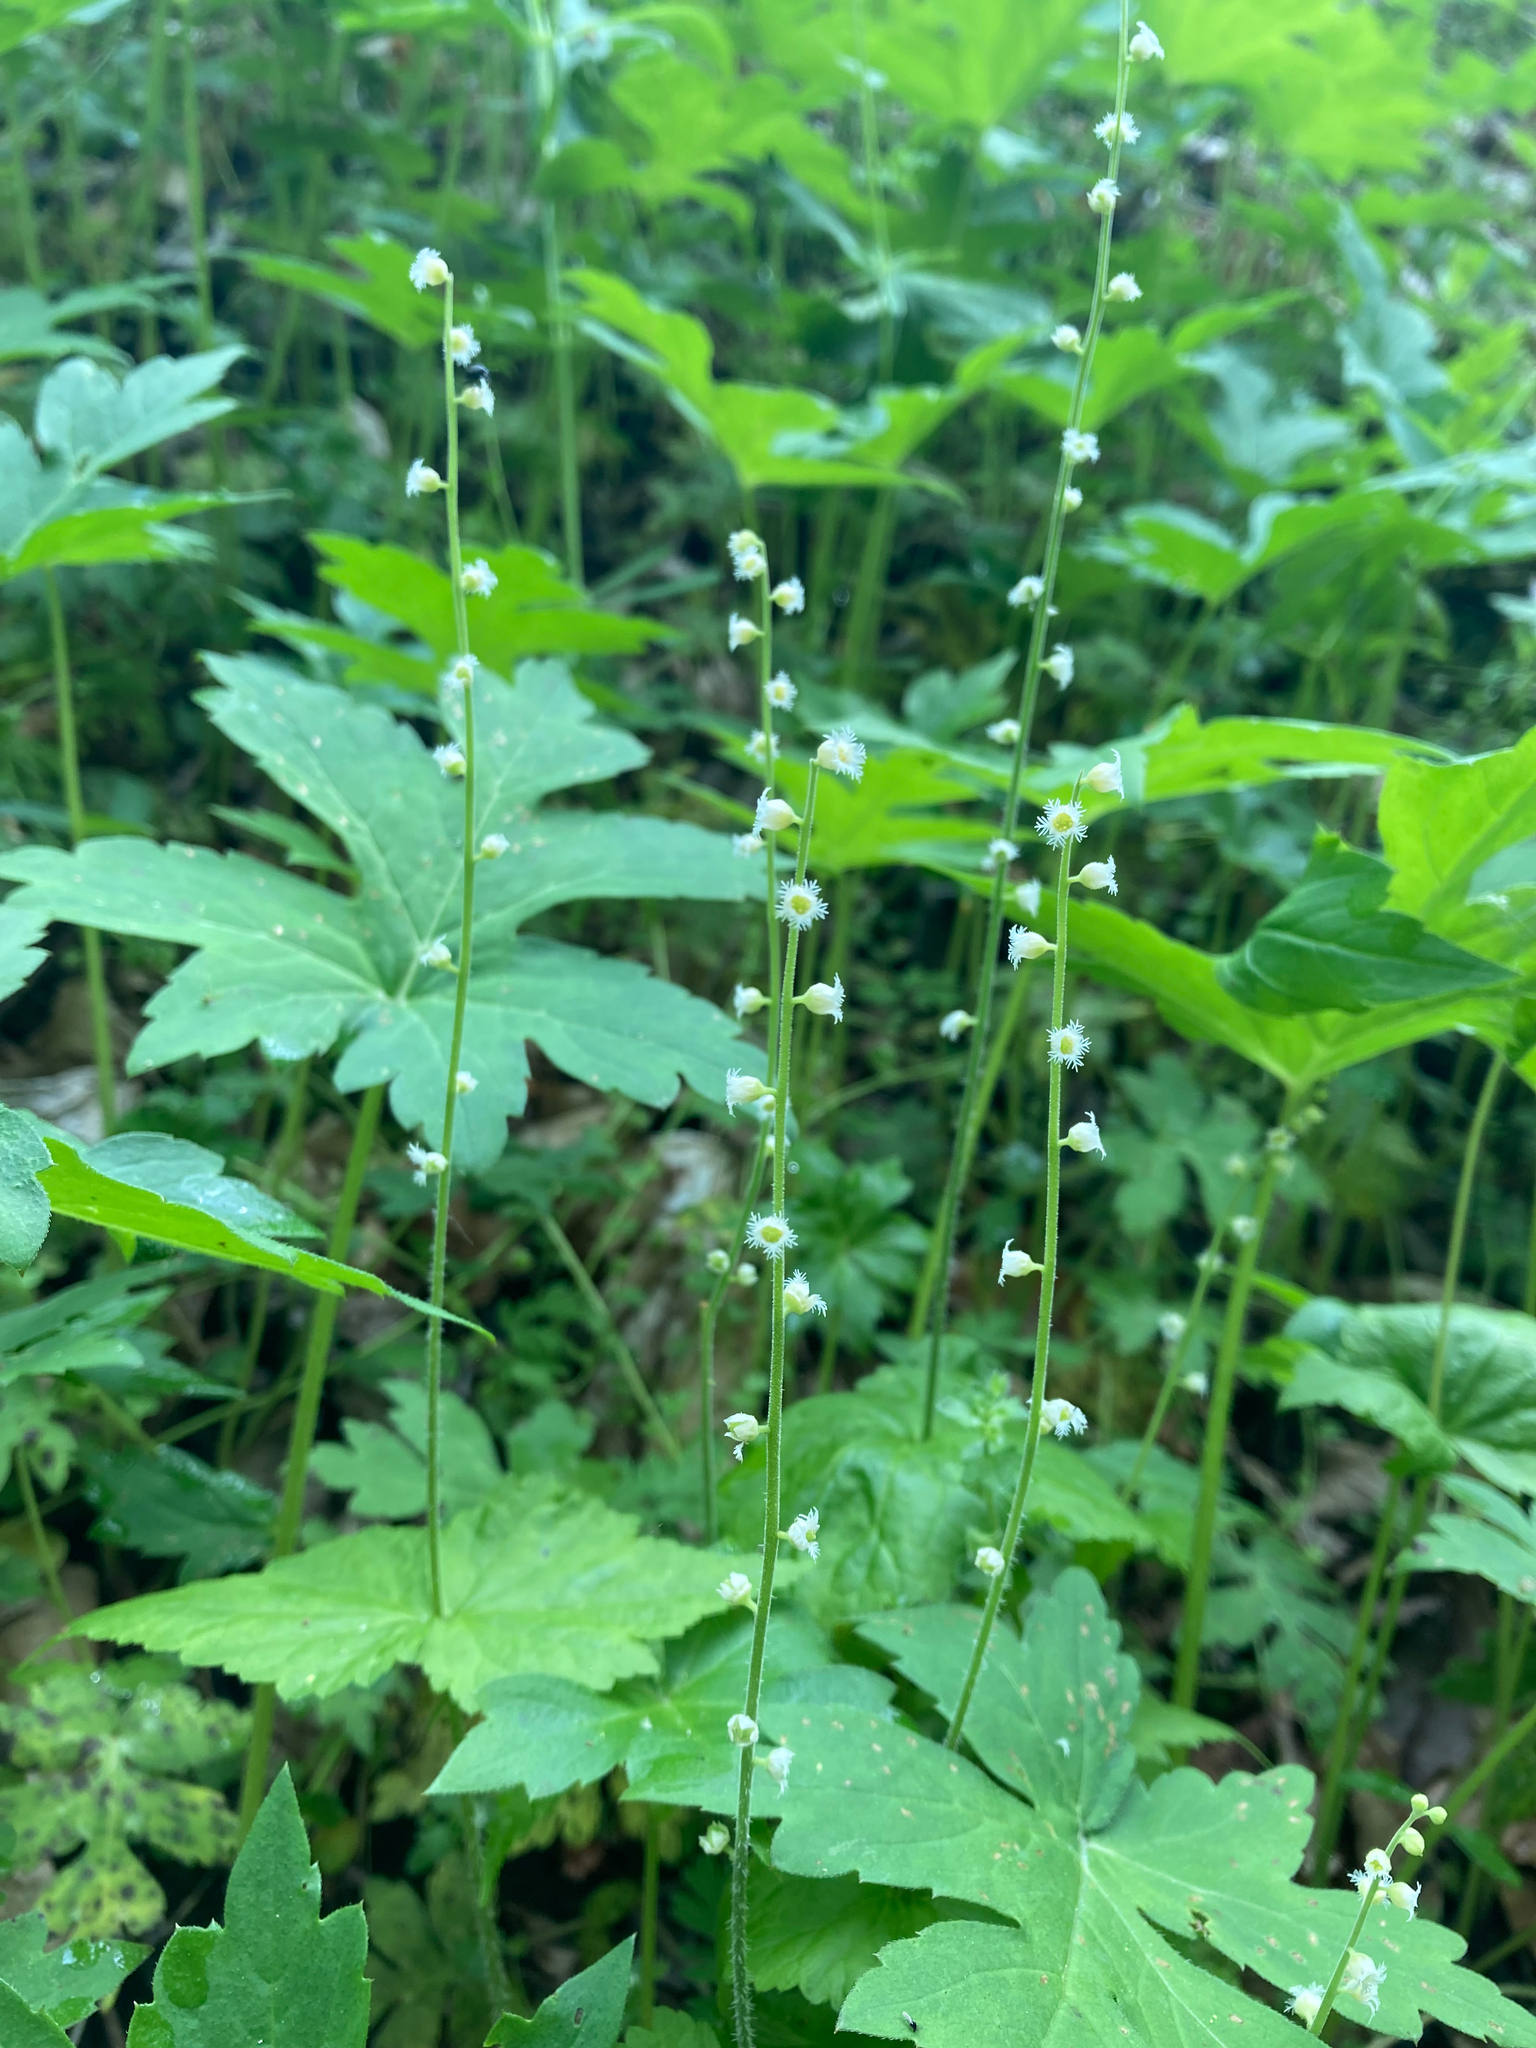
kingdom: Plantae
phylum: Tracheophyta
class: Magnoliopsida
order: Saxifragales
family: Saxifragaceae
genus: Mitella
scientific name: Mitella diphylla
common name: Coolwort
